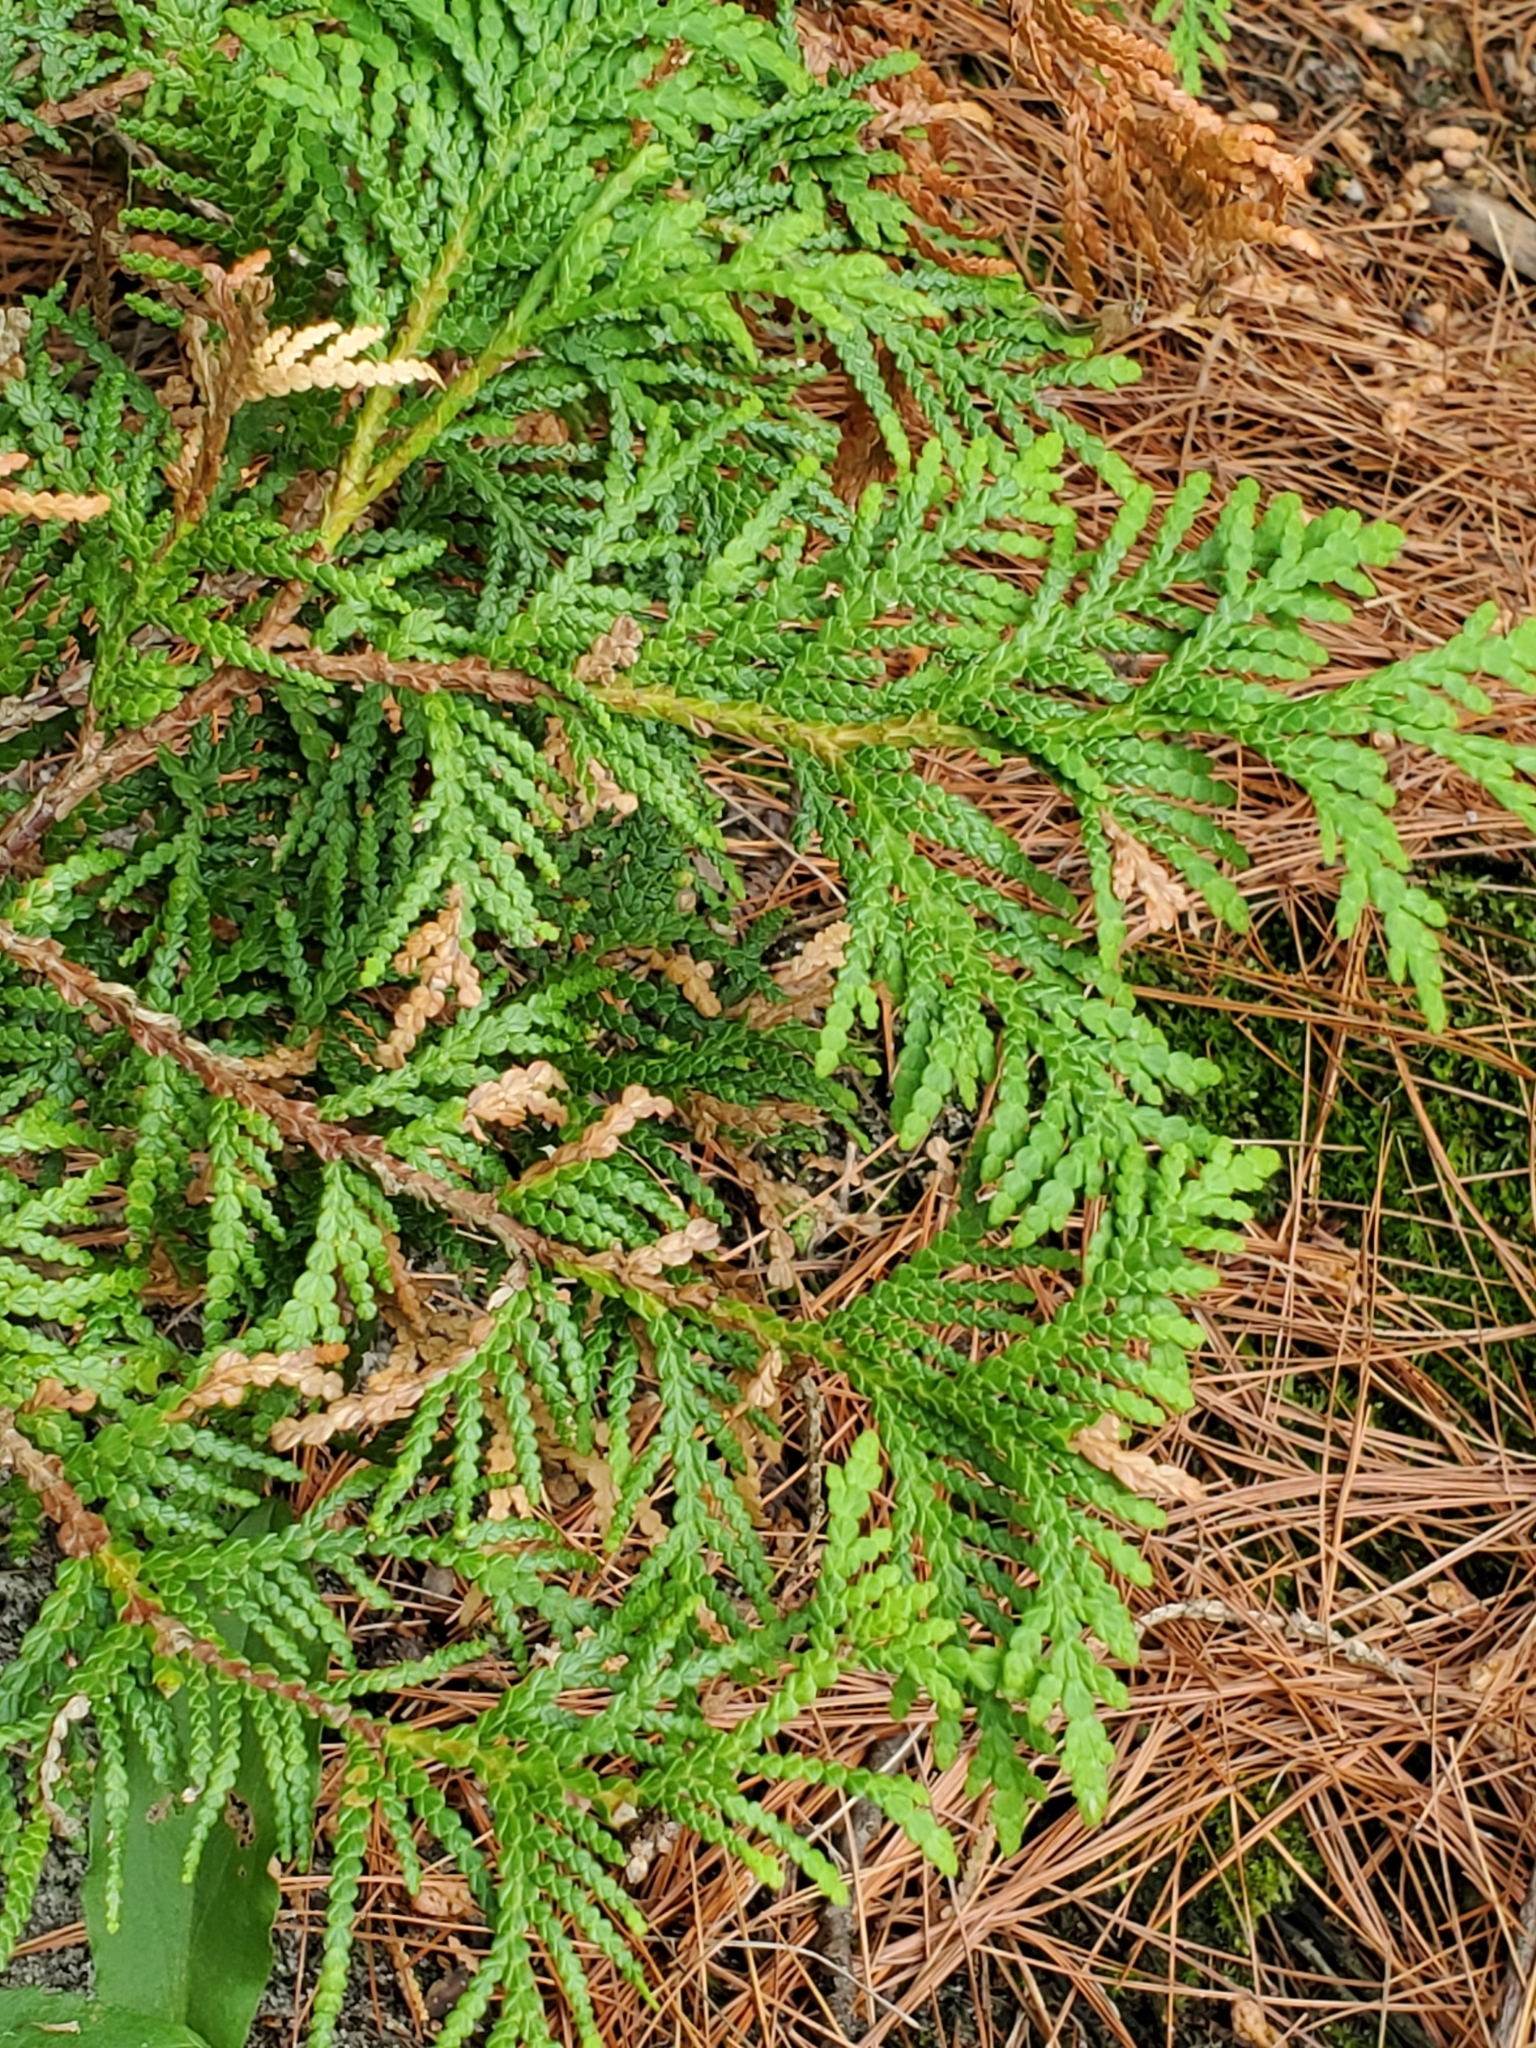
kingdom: Plantae
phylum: Tracheophyta
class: Pinopsida
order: Pinales
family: Cupressaceae
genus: Thuja
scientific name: Thuja occidentalis
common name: Northern white-cedar
